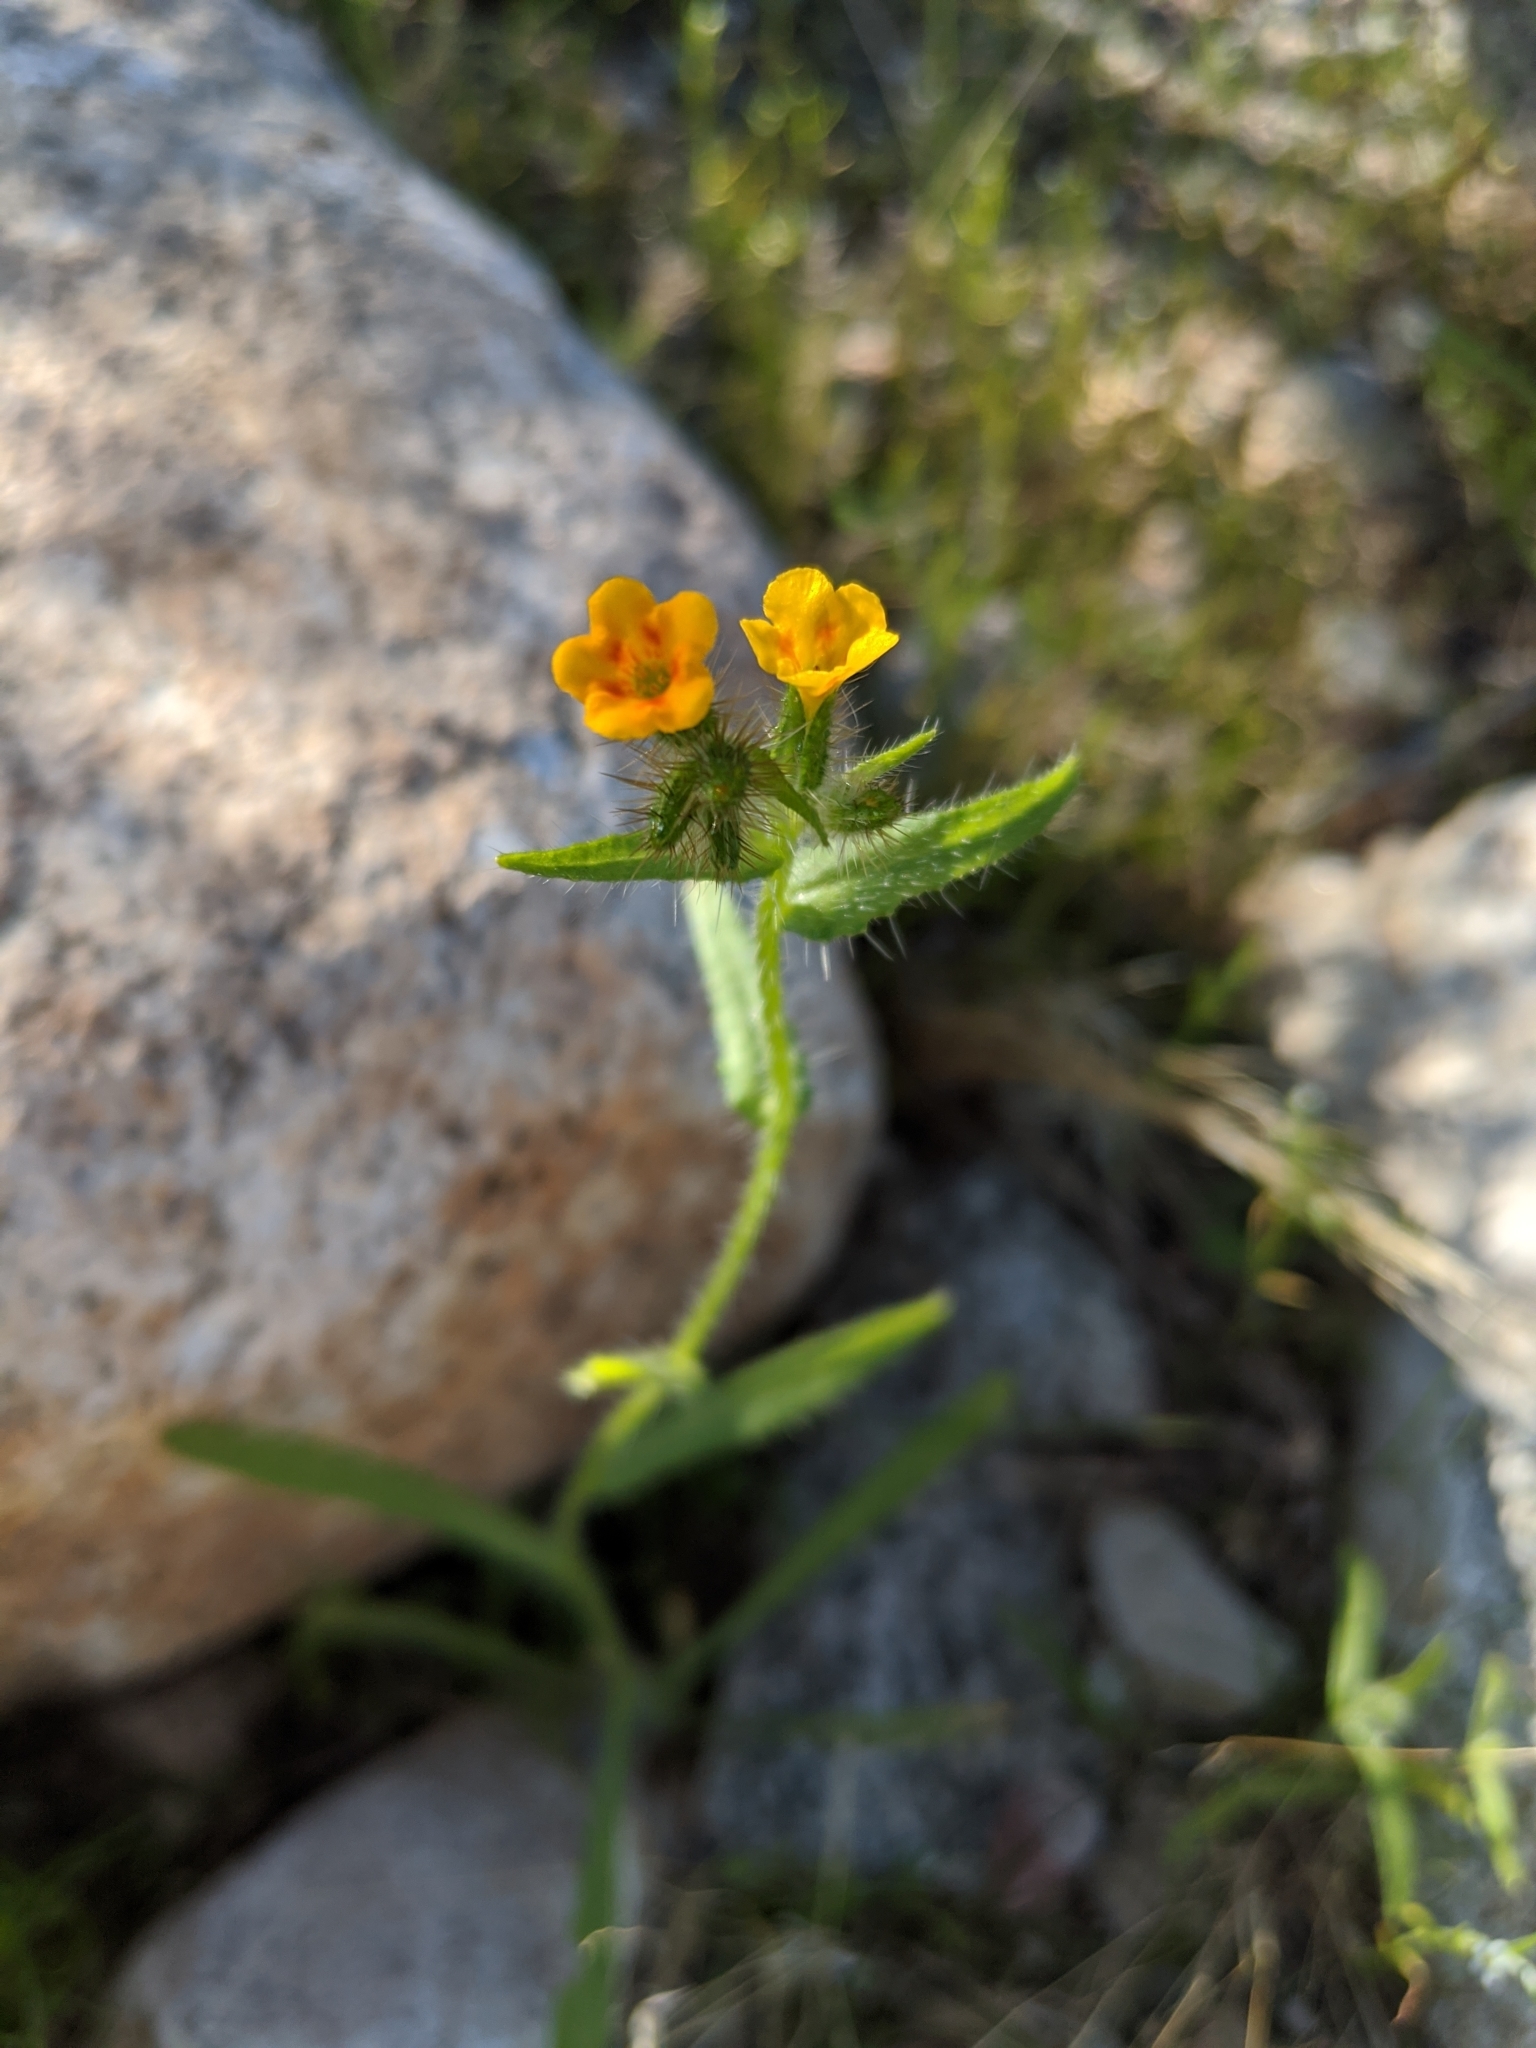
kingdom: Plantae
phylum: Tracheophyta
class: Magnoliopsida
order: Boraginales
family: Boraginaceae
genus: Amsinckia
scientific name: Amsinckia
